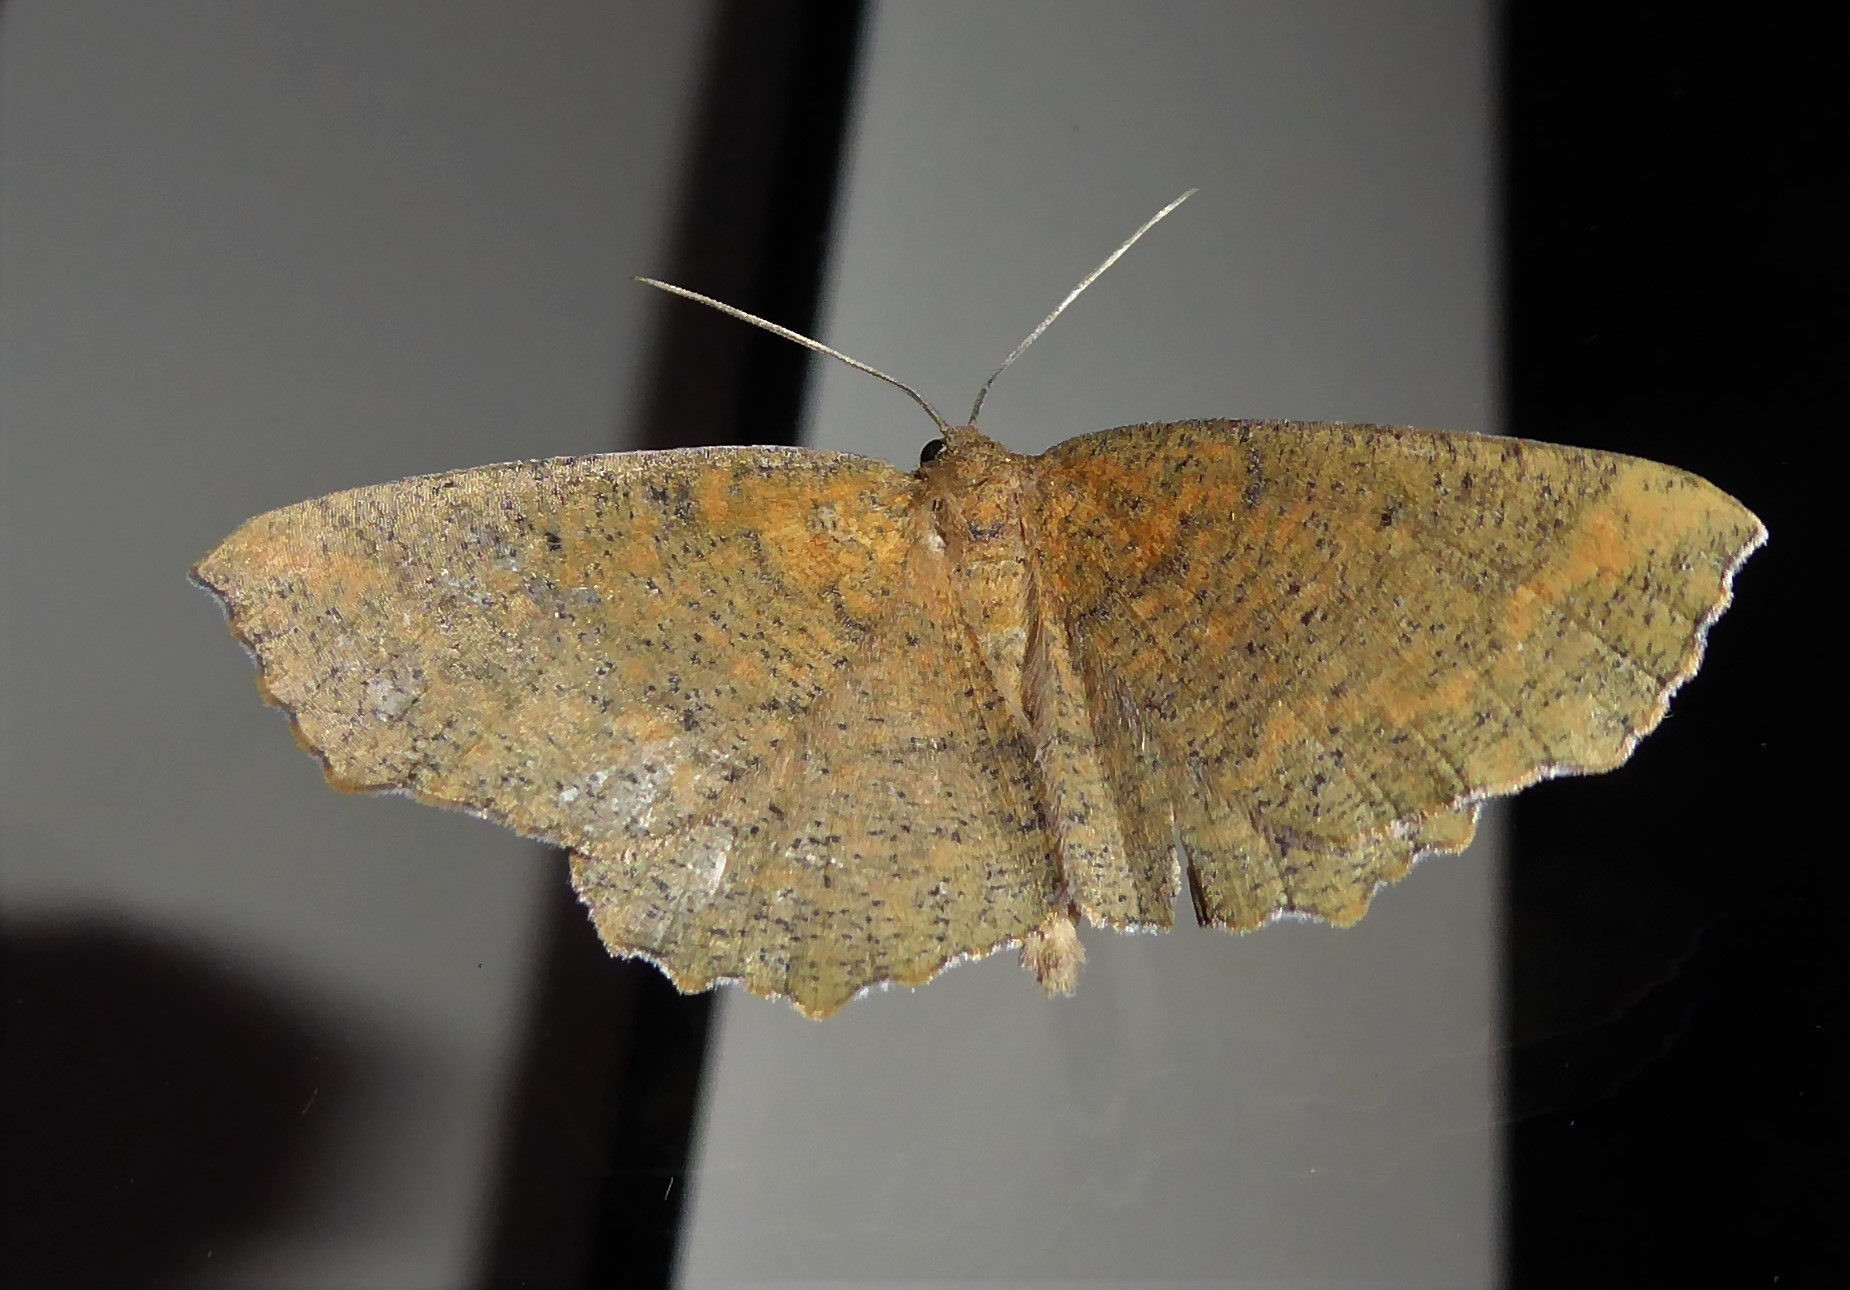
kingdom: Animalia
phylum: Arthropoda
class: Insecta
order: Lepidoptera
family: Geometridae
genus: Xyridacma
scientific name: Xyridacma ustaria
